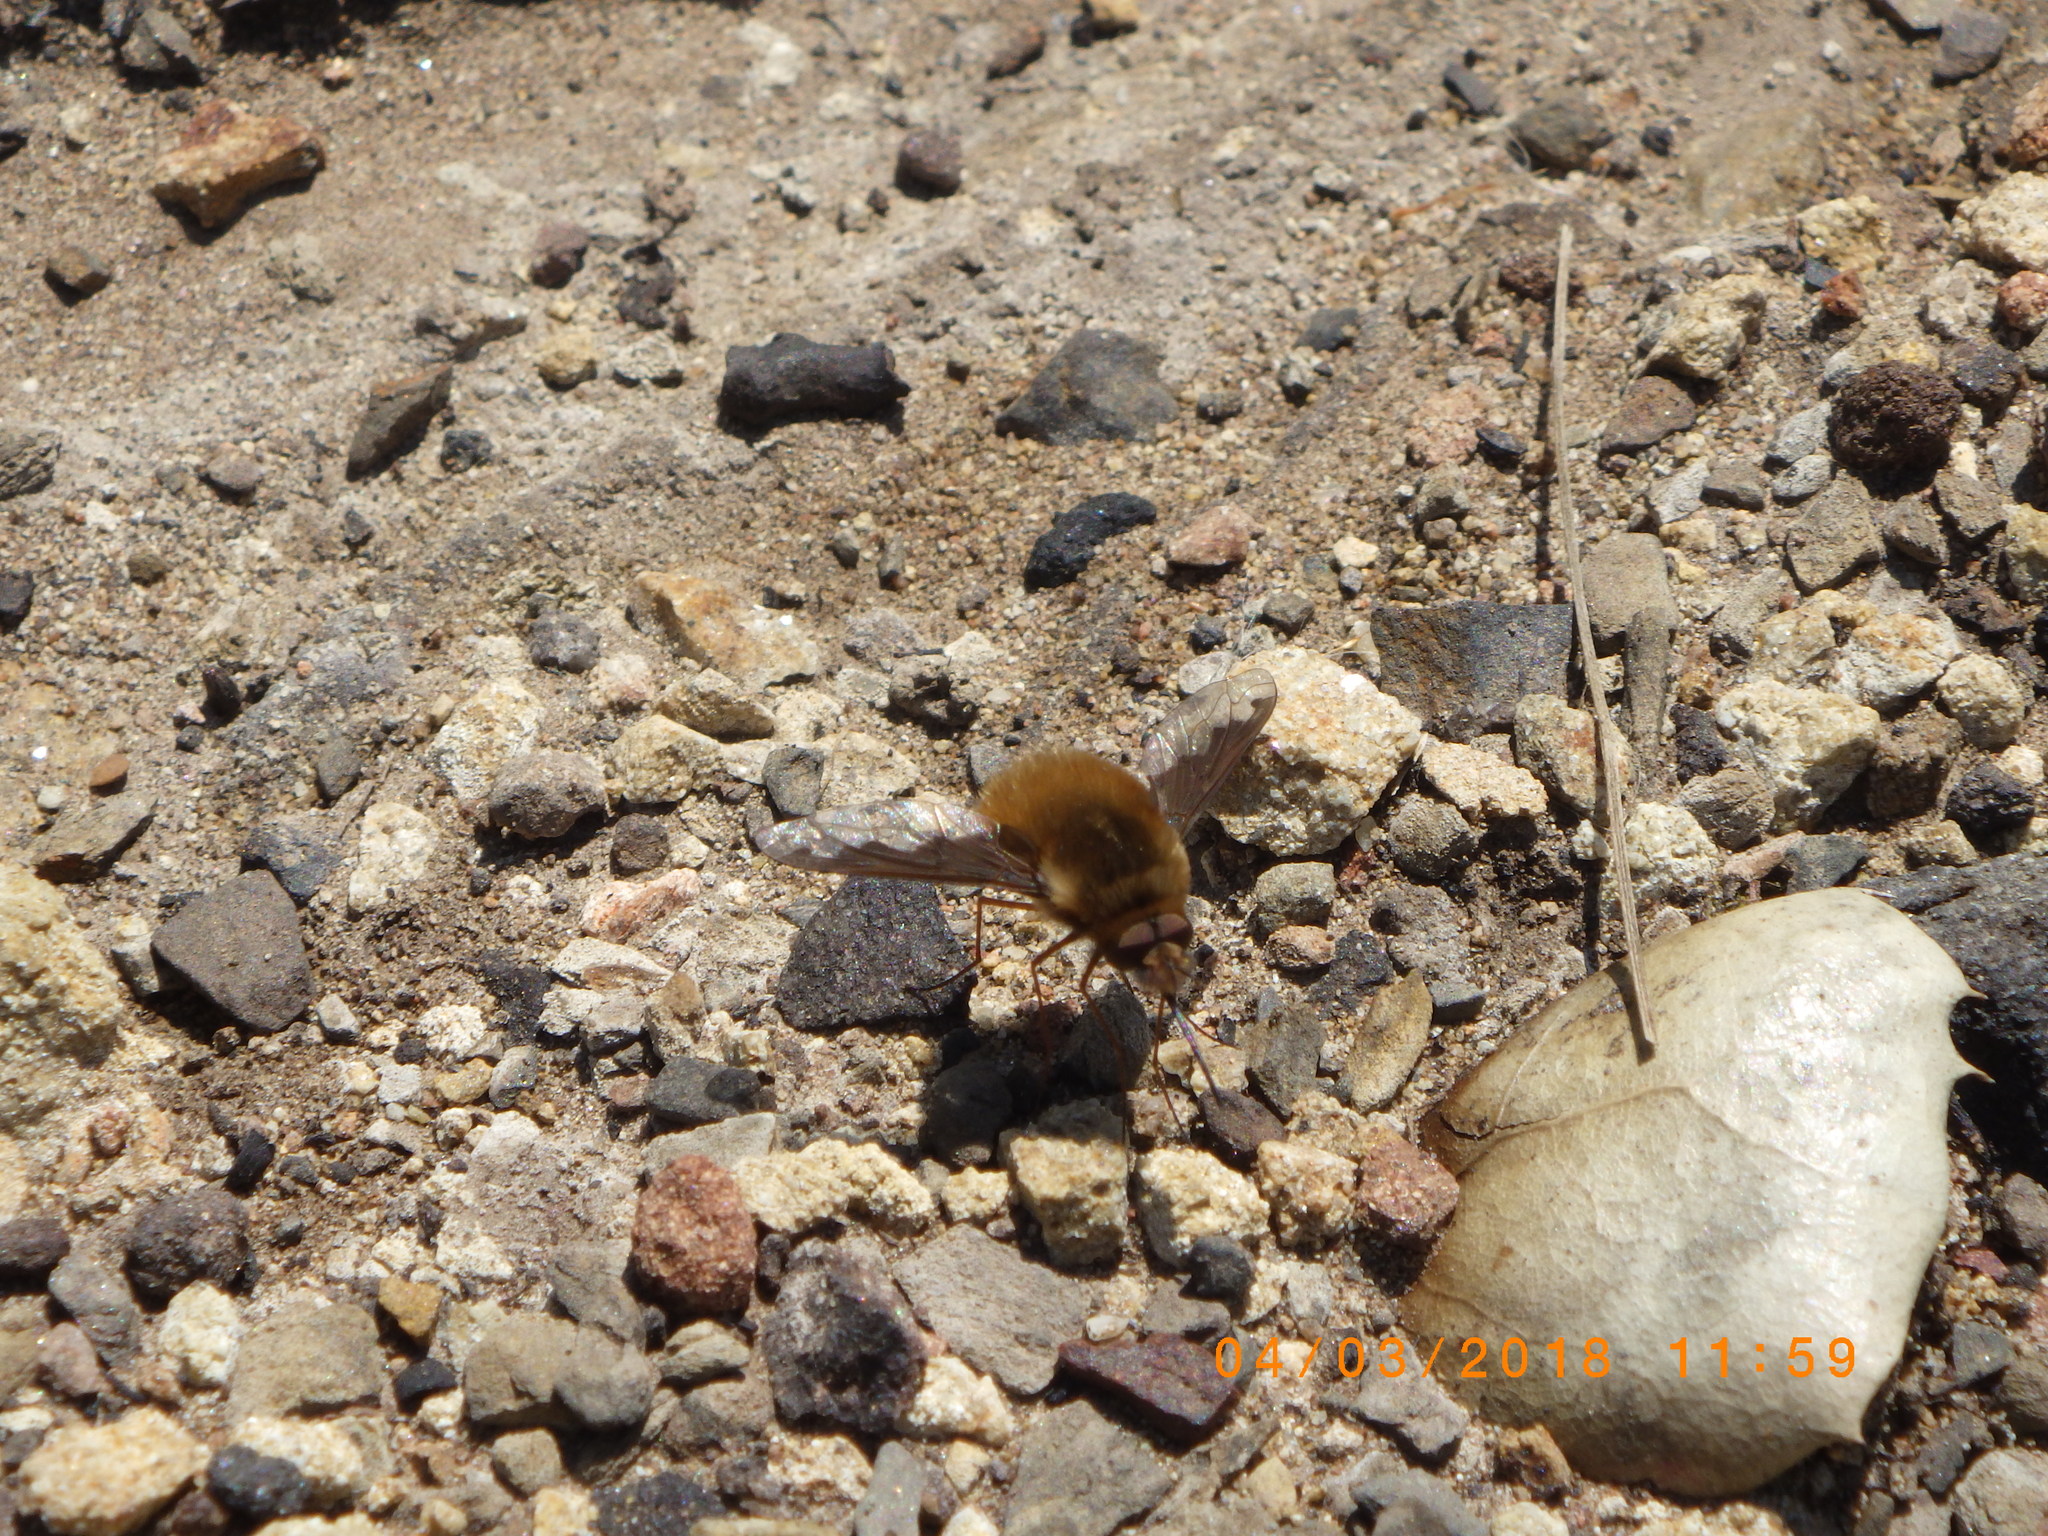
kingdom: Animalia
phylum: Arthropoda
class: Insecta
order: Diptera
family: Bombyliidae
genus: Bombylius
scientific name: Bombylius major
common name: Bee fly
